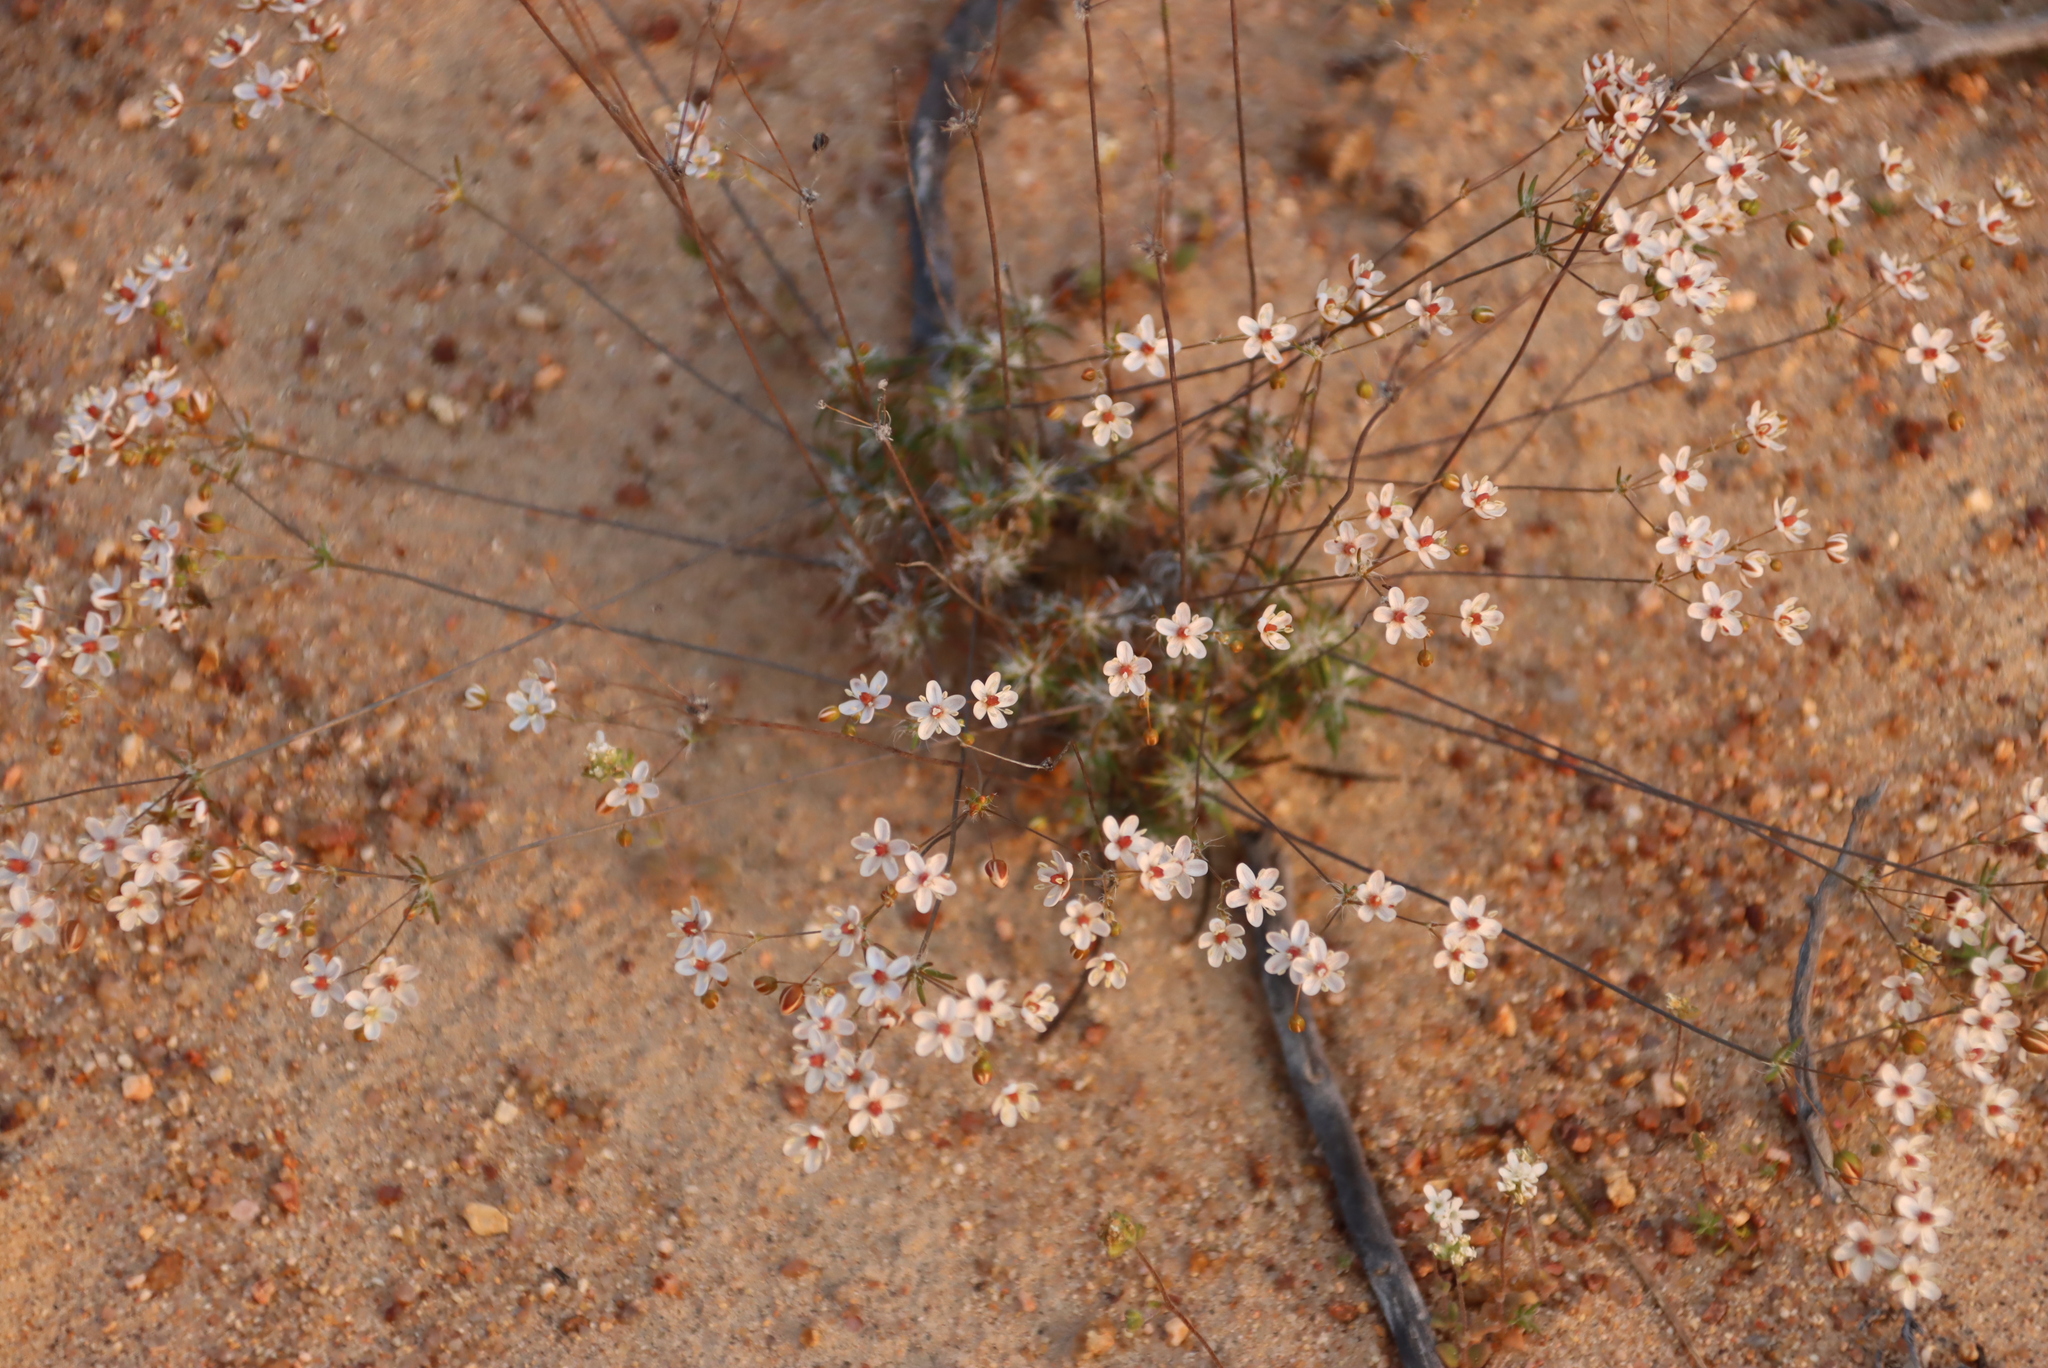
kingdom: Plantae
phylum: Tracheophyta
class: Magnoliopsida
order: Caryophyllales
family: Kewaceae
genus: Kewa
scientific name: Kewa salsoloides
